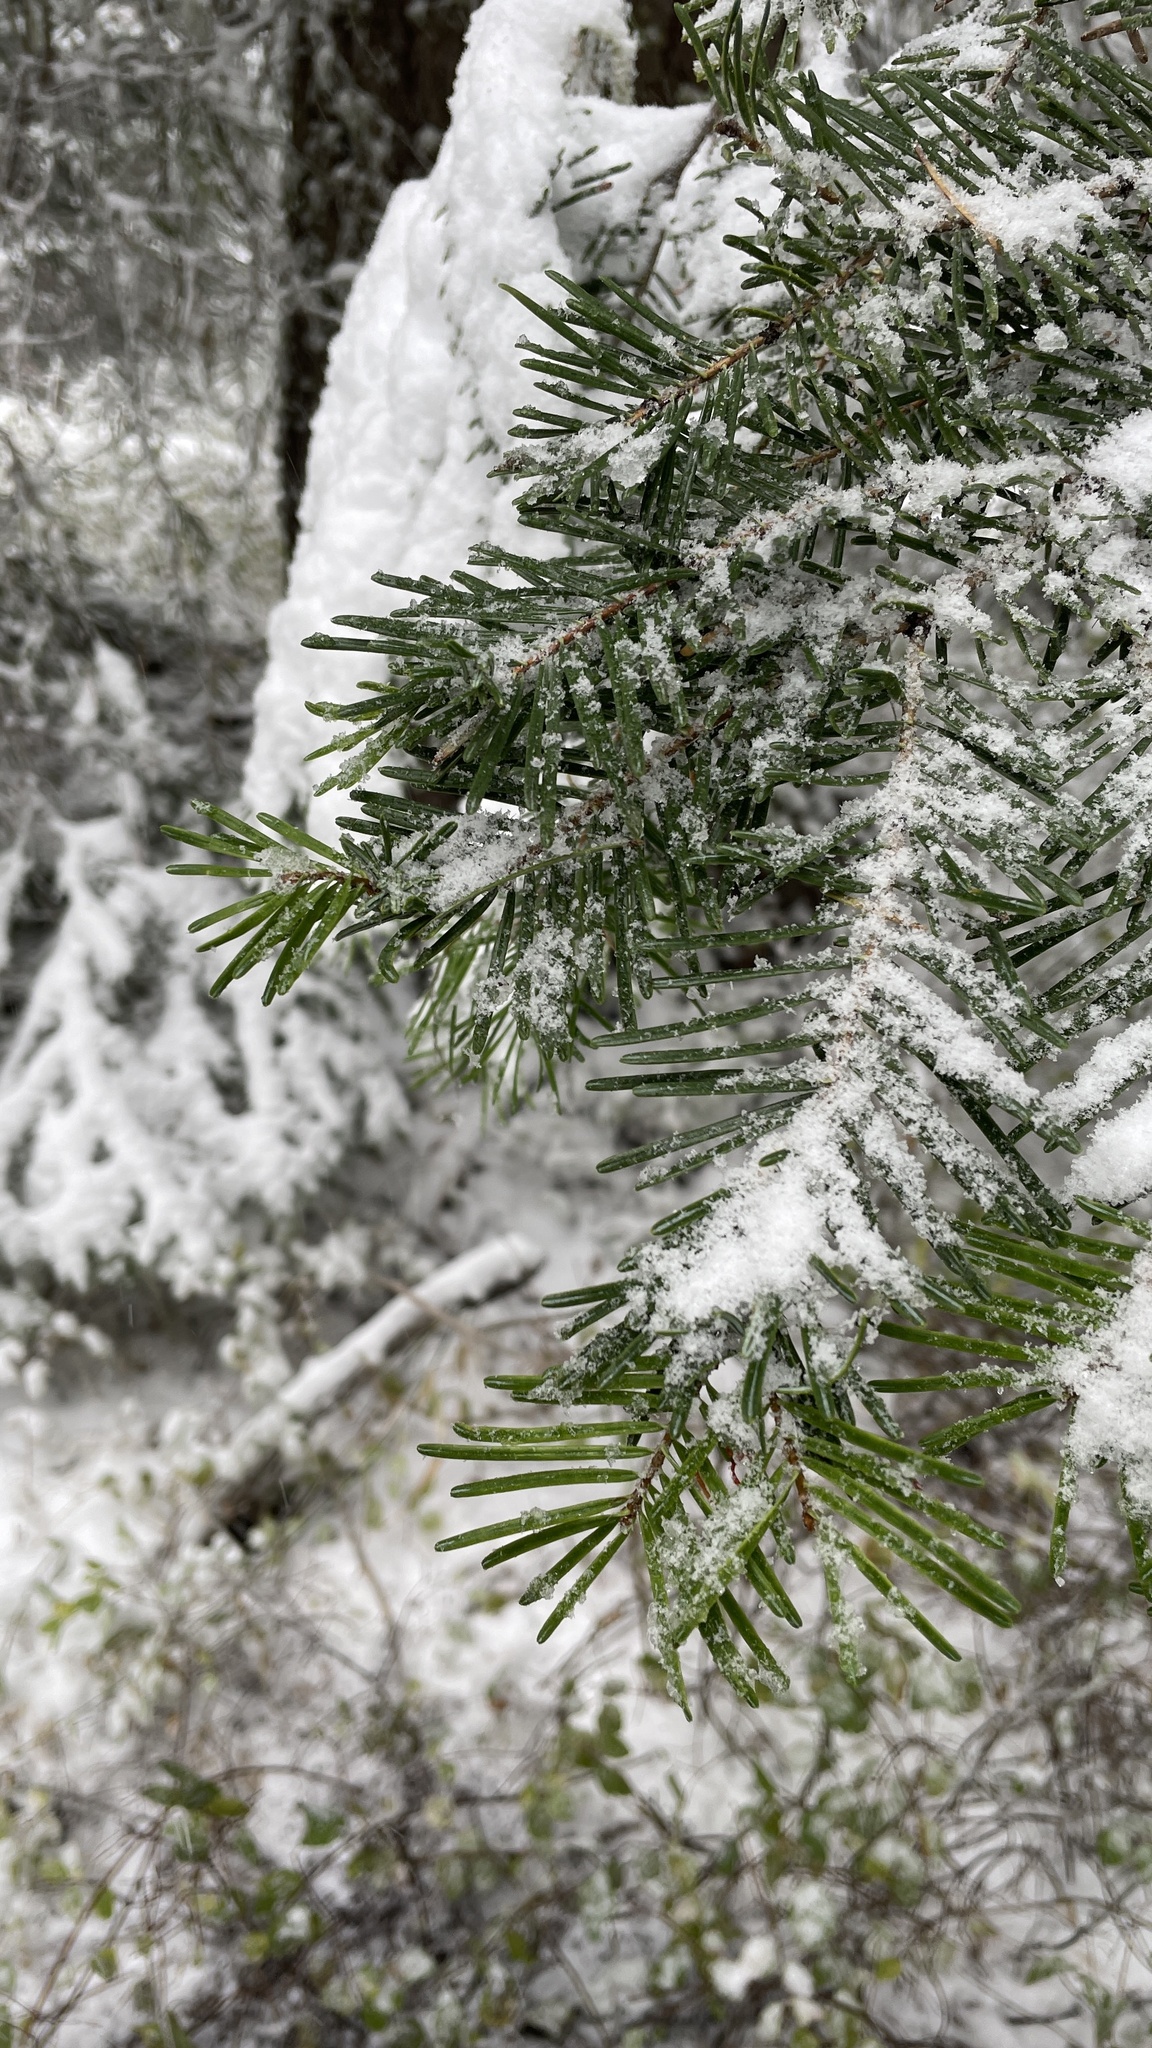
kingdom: Plantae
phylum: Tracheophyta
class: Pinopsida
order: Pinales
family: Pinaceae
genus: Abies
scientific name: Abies concolor
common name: Colorado fir
